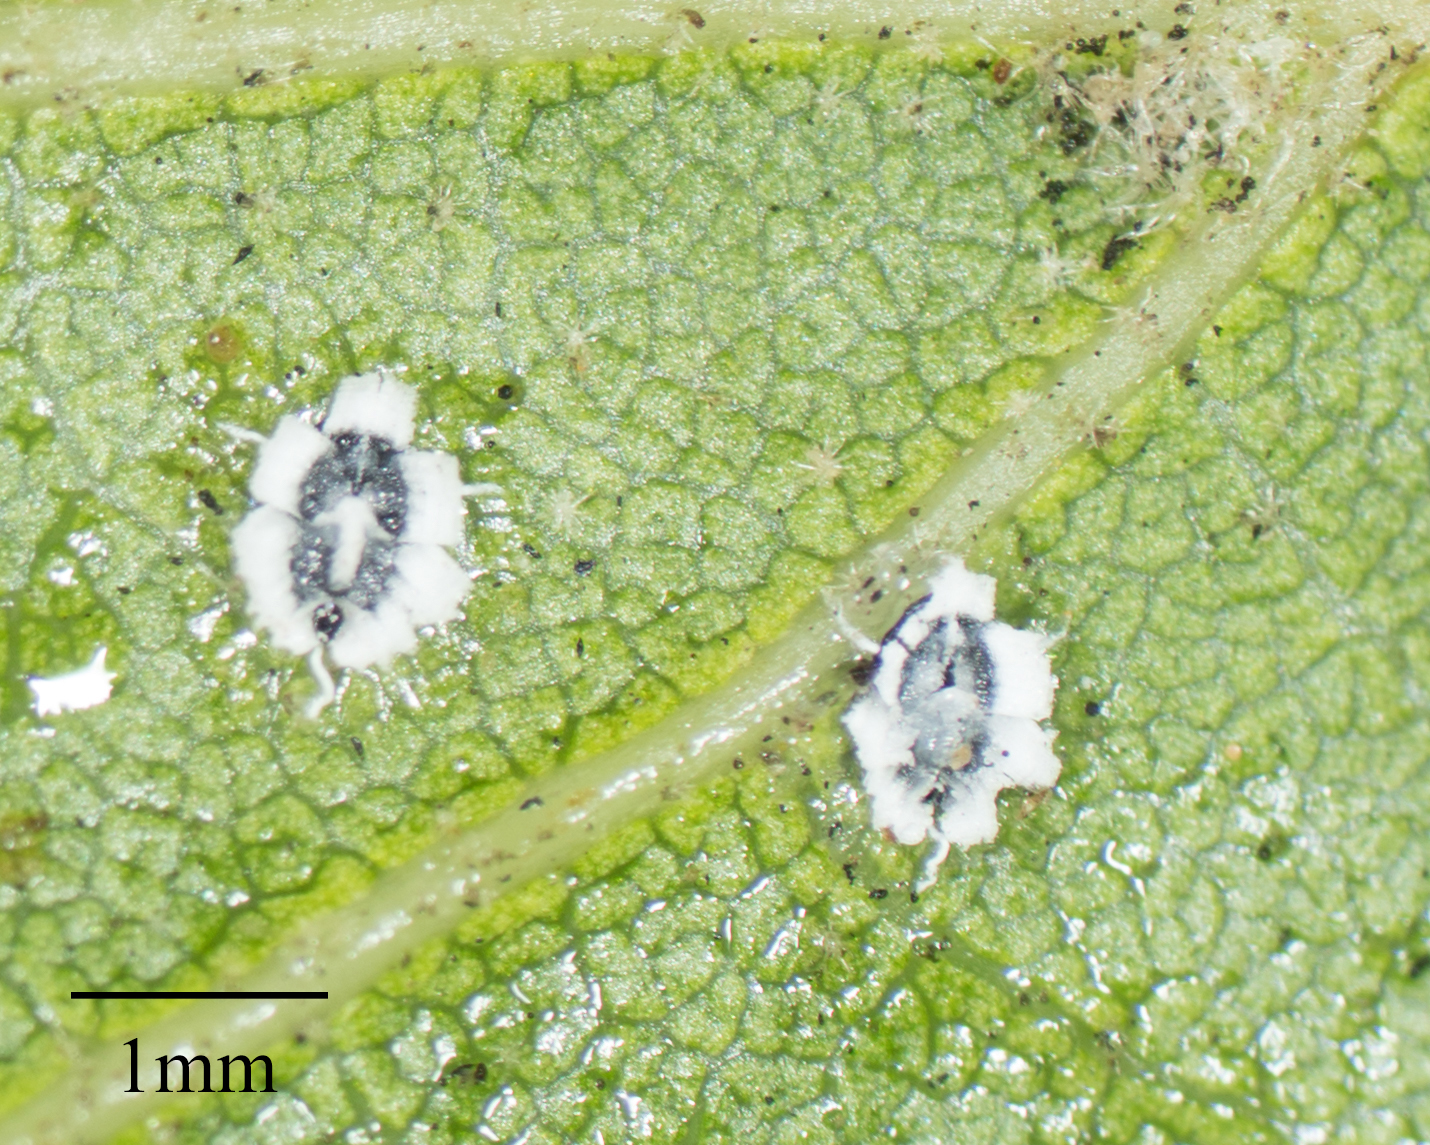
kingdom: Animalia
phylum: Arthropoda
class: Insecta
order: Hemiptera
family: Aleyrodidae
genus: Aleuroplatus
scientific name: Aleuroplatus coronata
